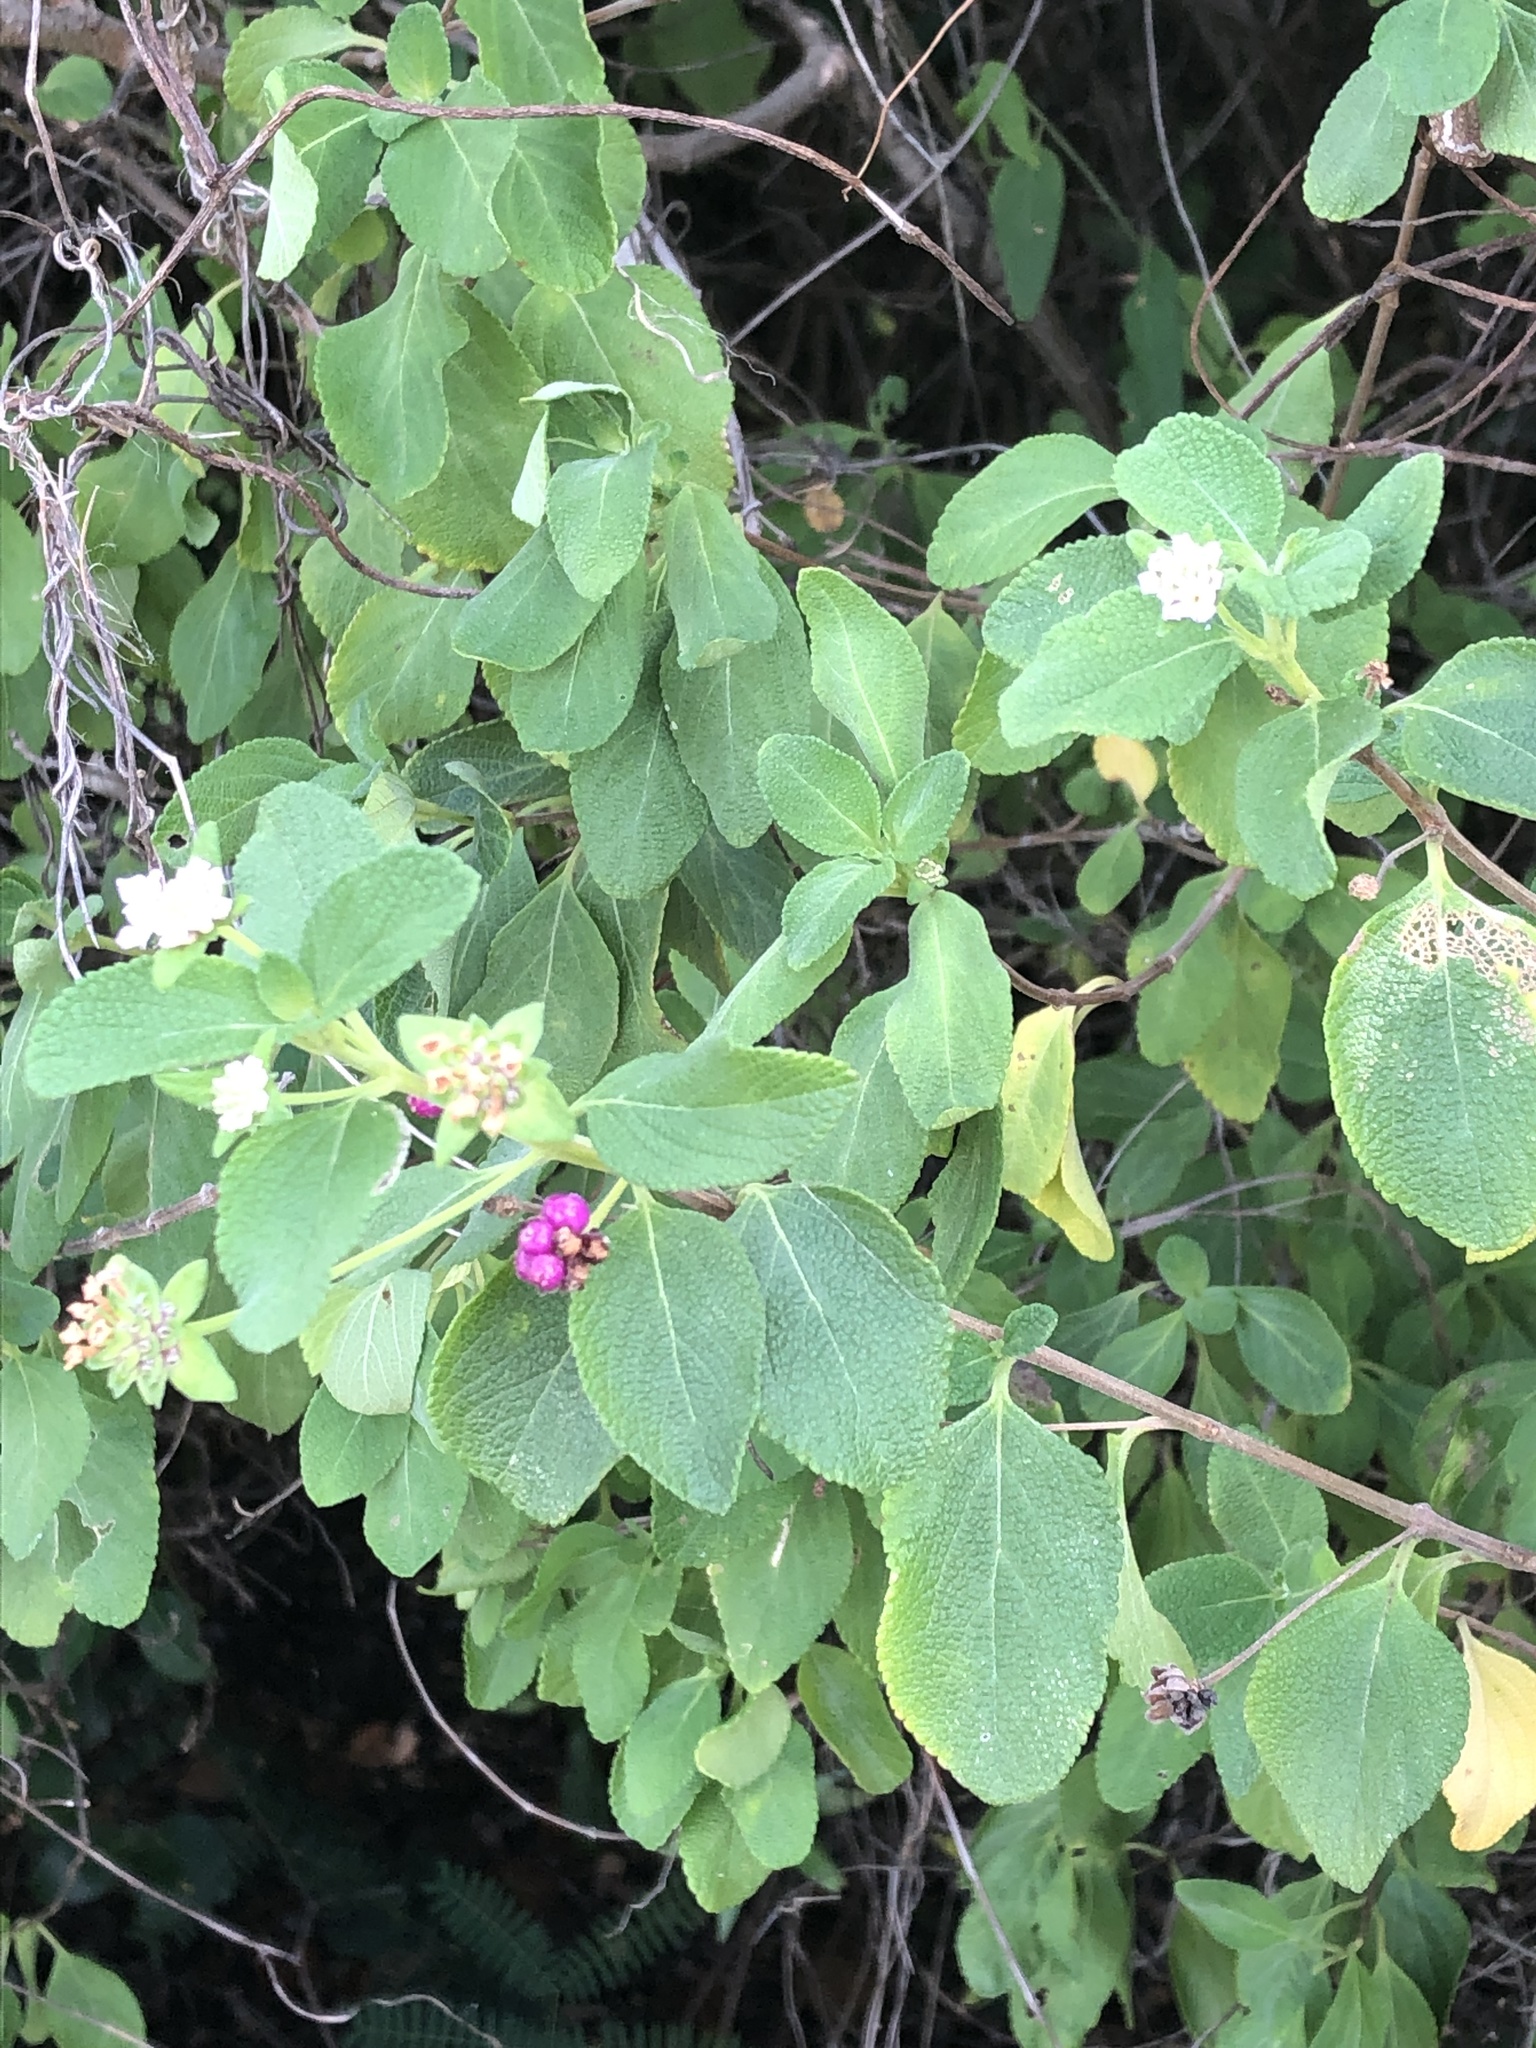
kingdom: Plantae
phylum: Tracheophyta
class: Magnoliopsida
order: Lamiales
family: Verbenaceae
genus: Lantana
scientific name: Lantana involucrata
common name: Black sage
